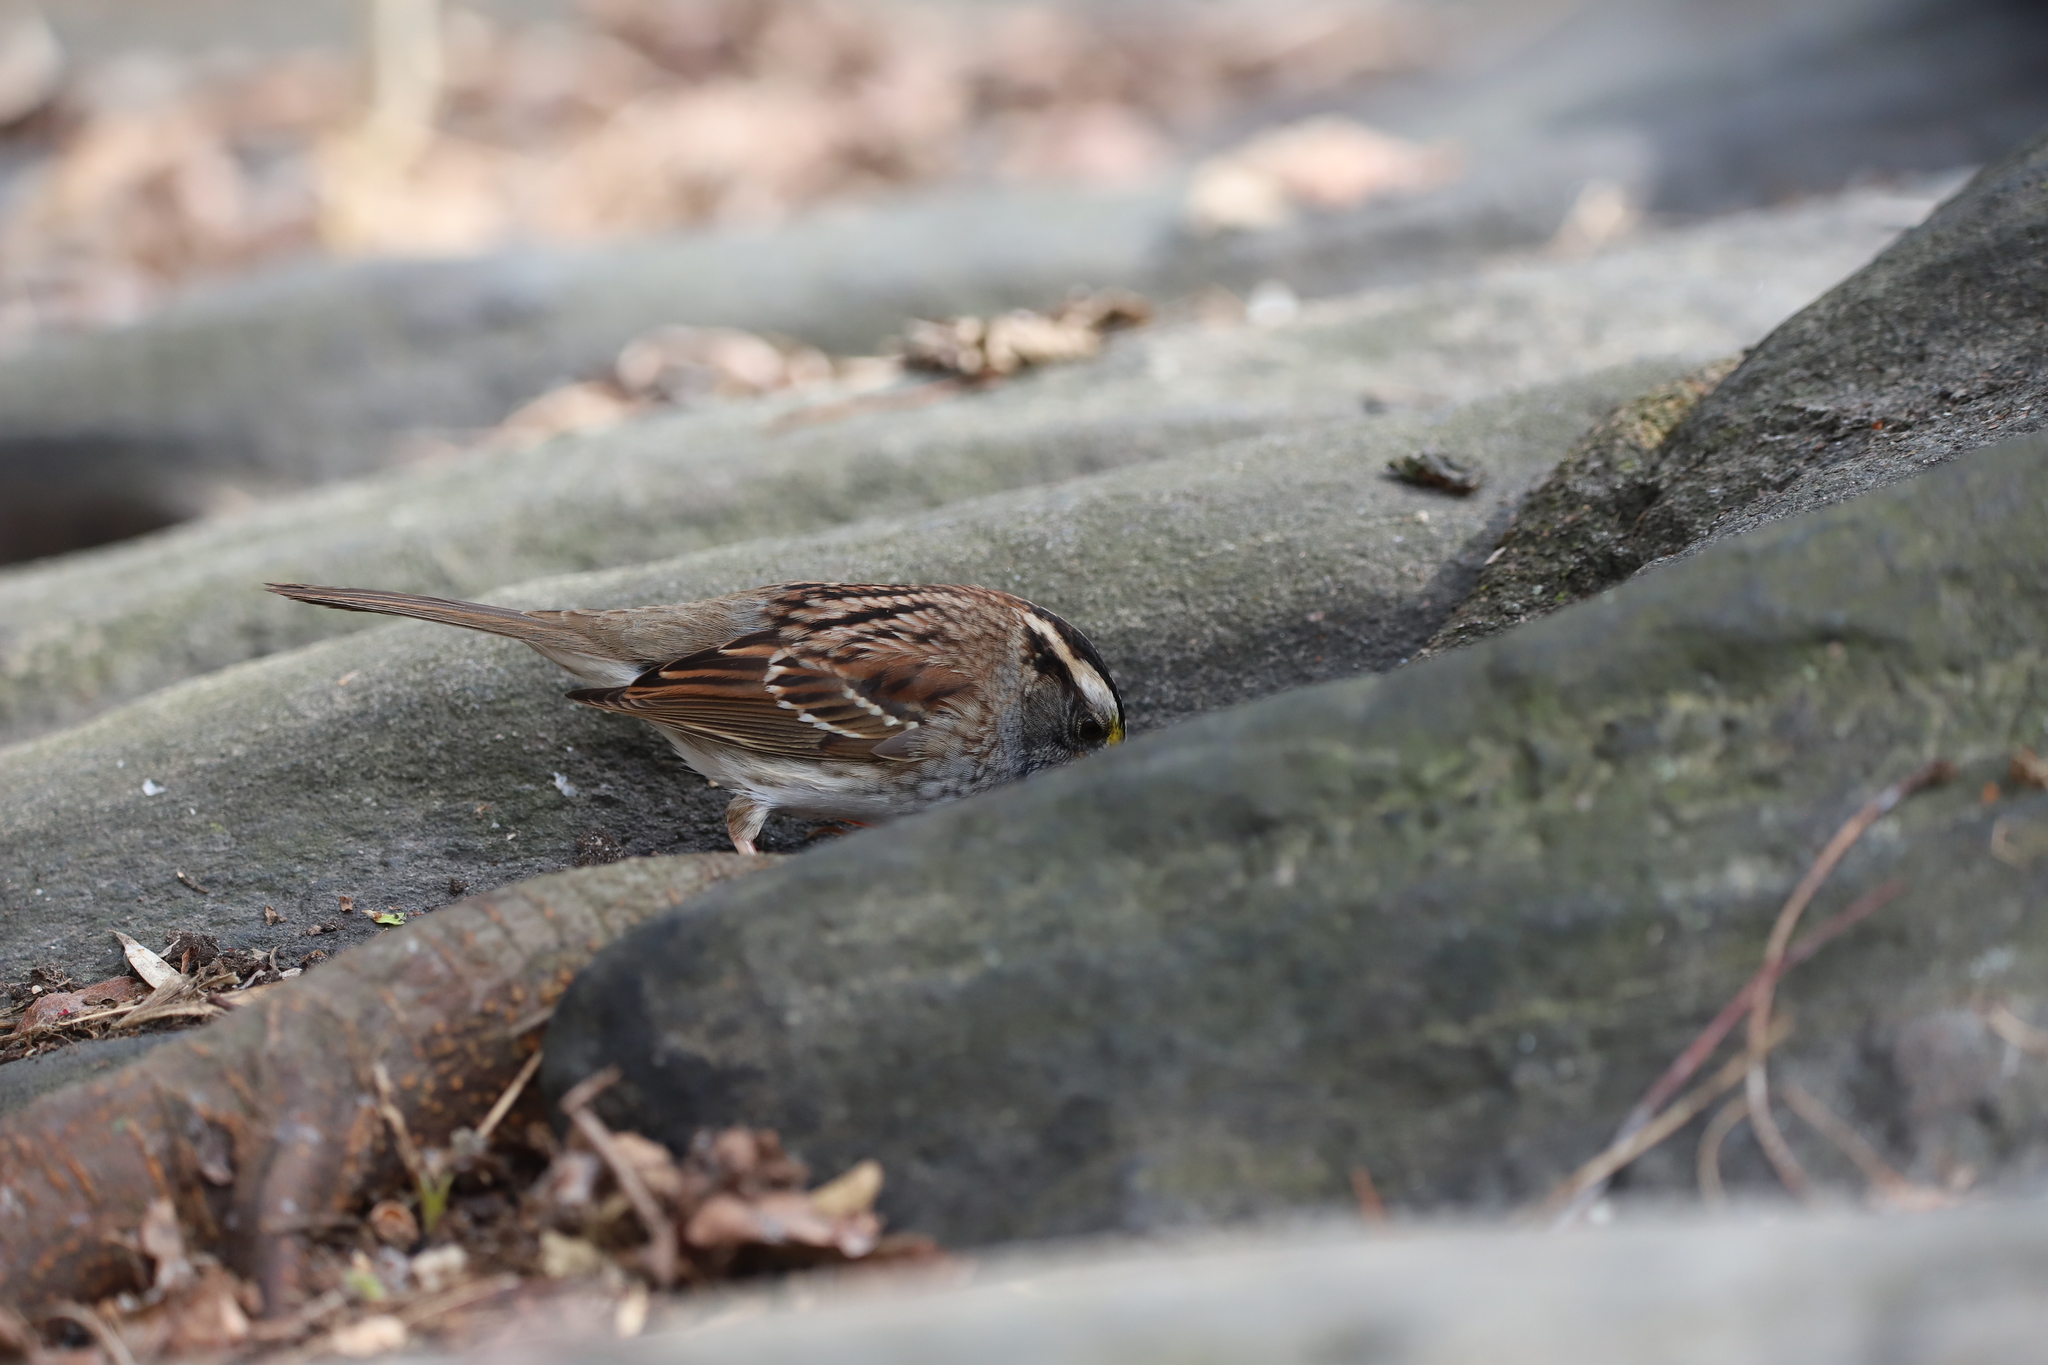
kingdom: Animalia
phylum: Chordata
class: Aves
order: Passeriformes
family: Passerellidae
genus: Zonotrichia
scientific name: Zonotrichia albicollis
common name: White-throated sparrow
